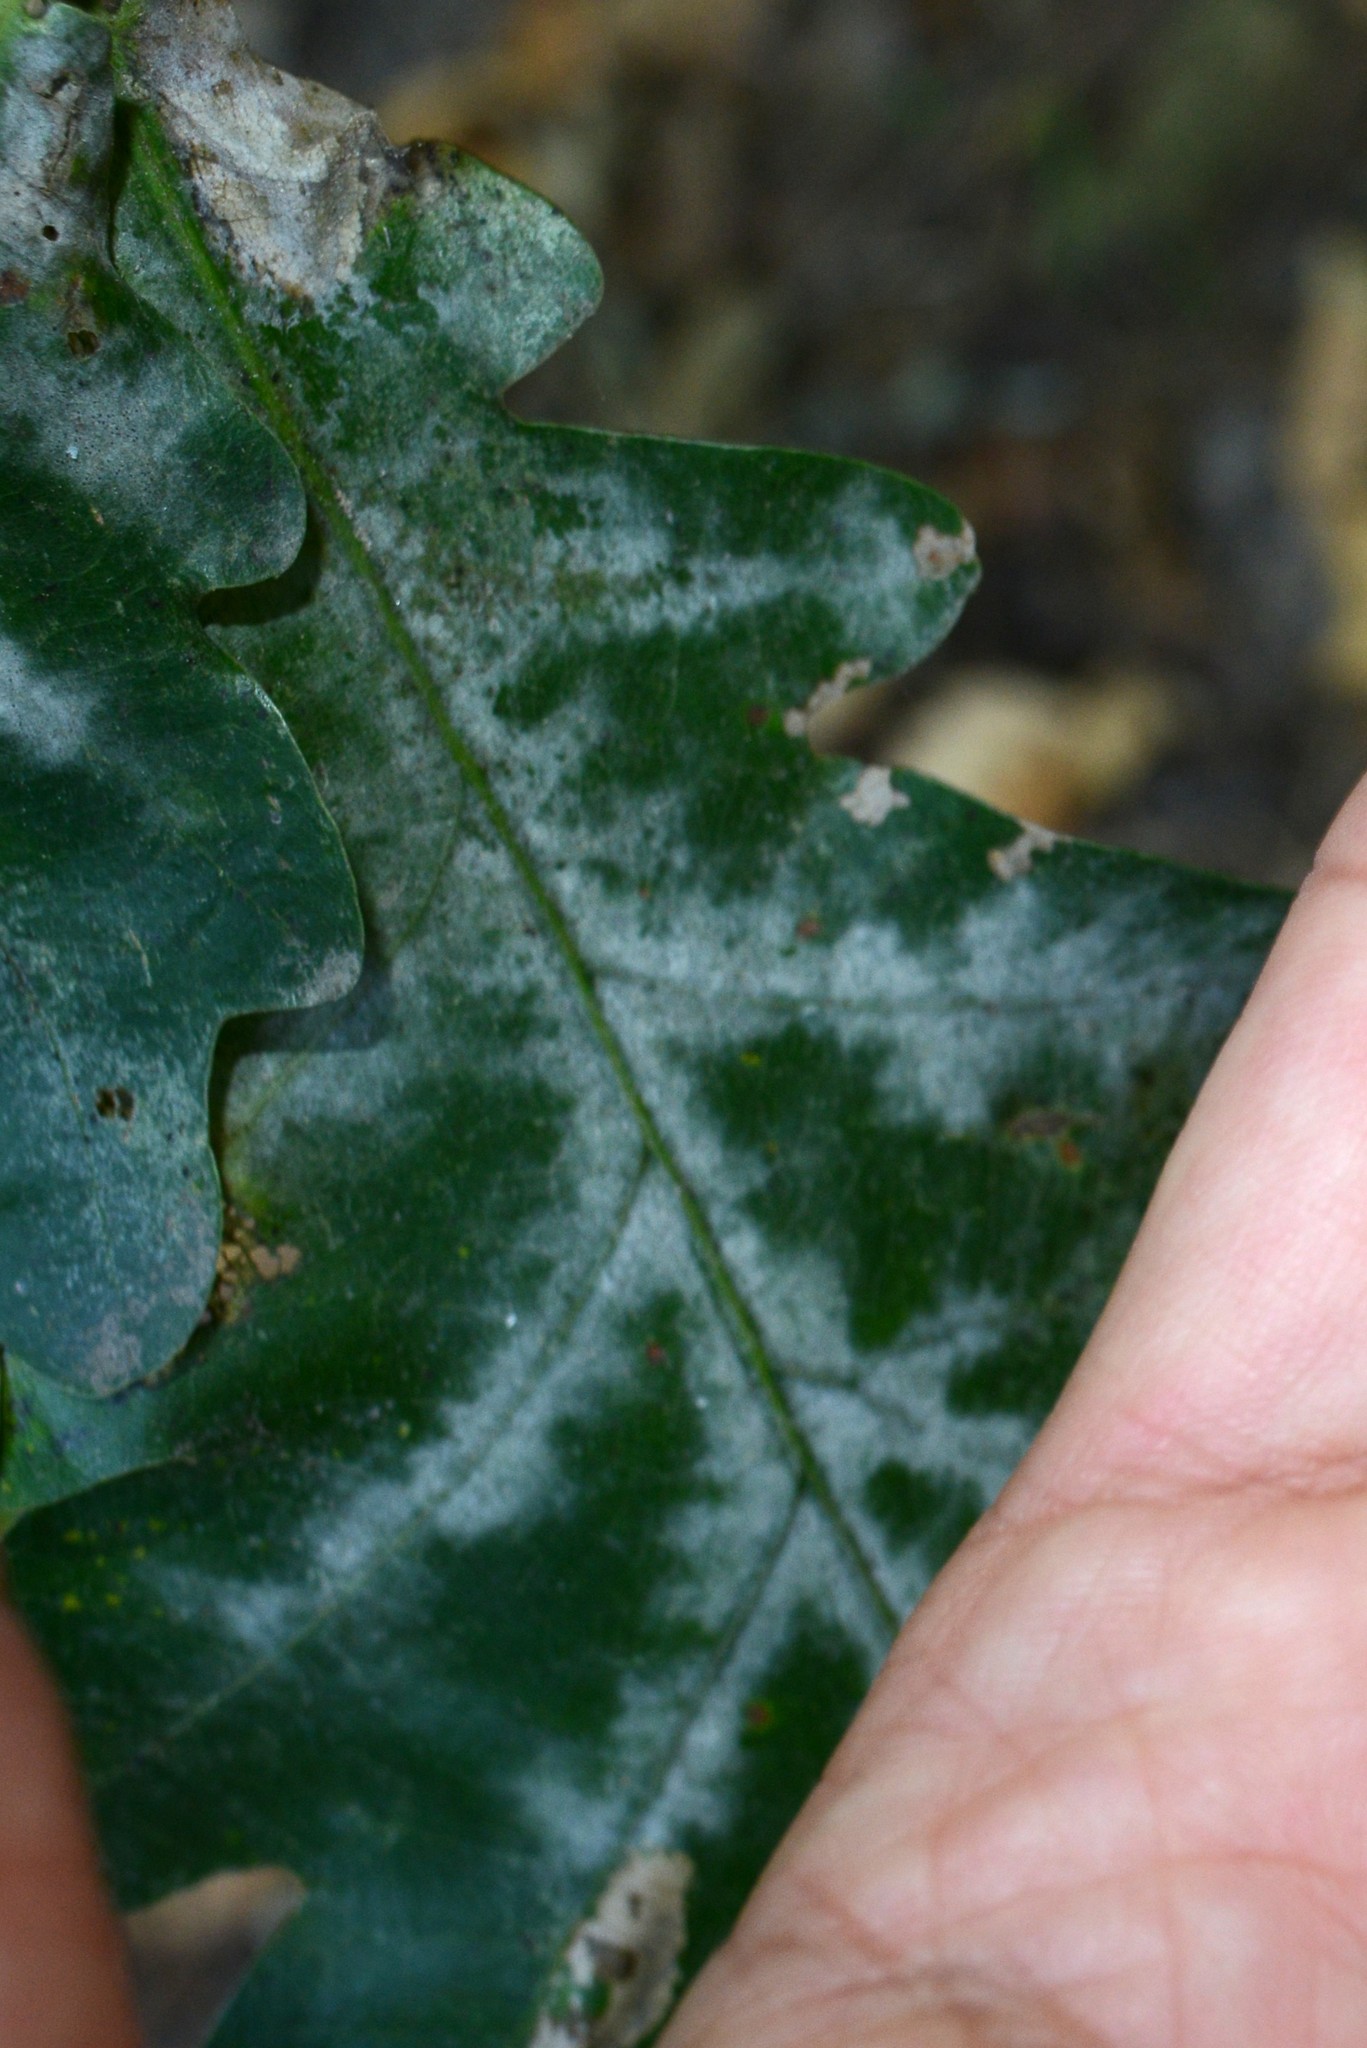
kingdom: Fungi
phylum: Ascomycota
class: Leotiomycetes
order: Helotiales
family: Erysiphaceae
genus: Erysiphe
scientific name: Erysiphe alphitoides
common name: Oak mildew
